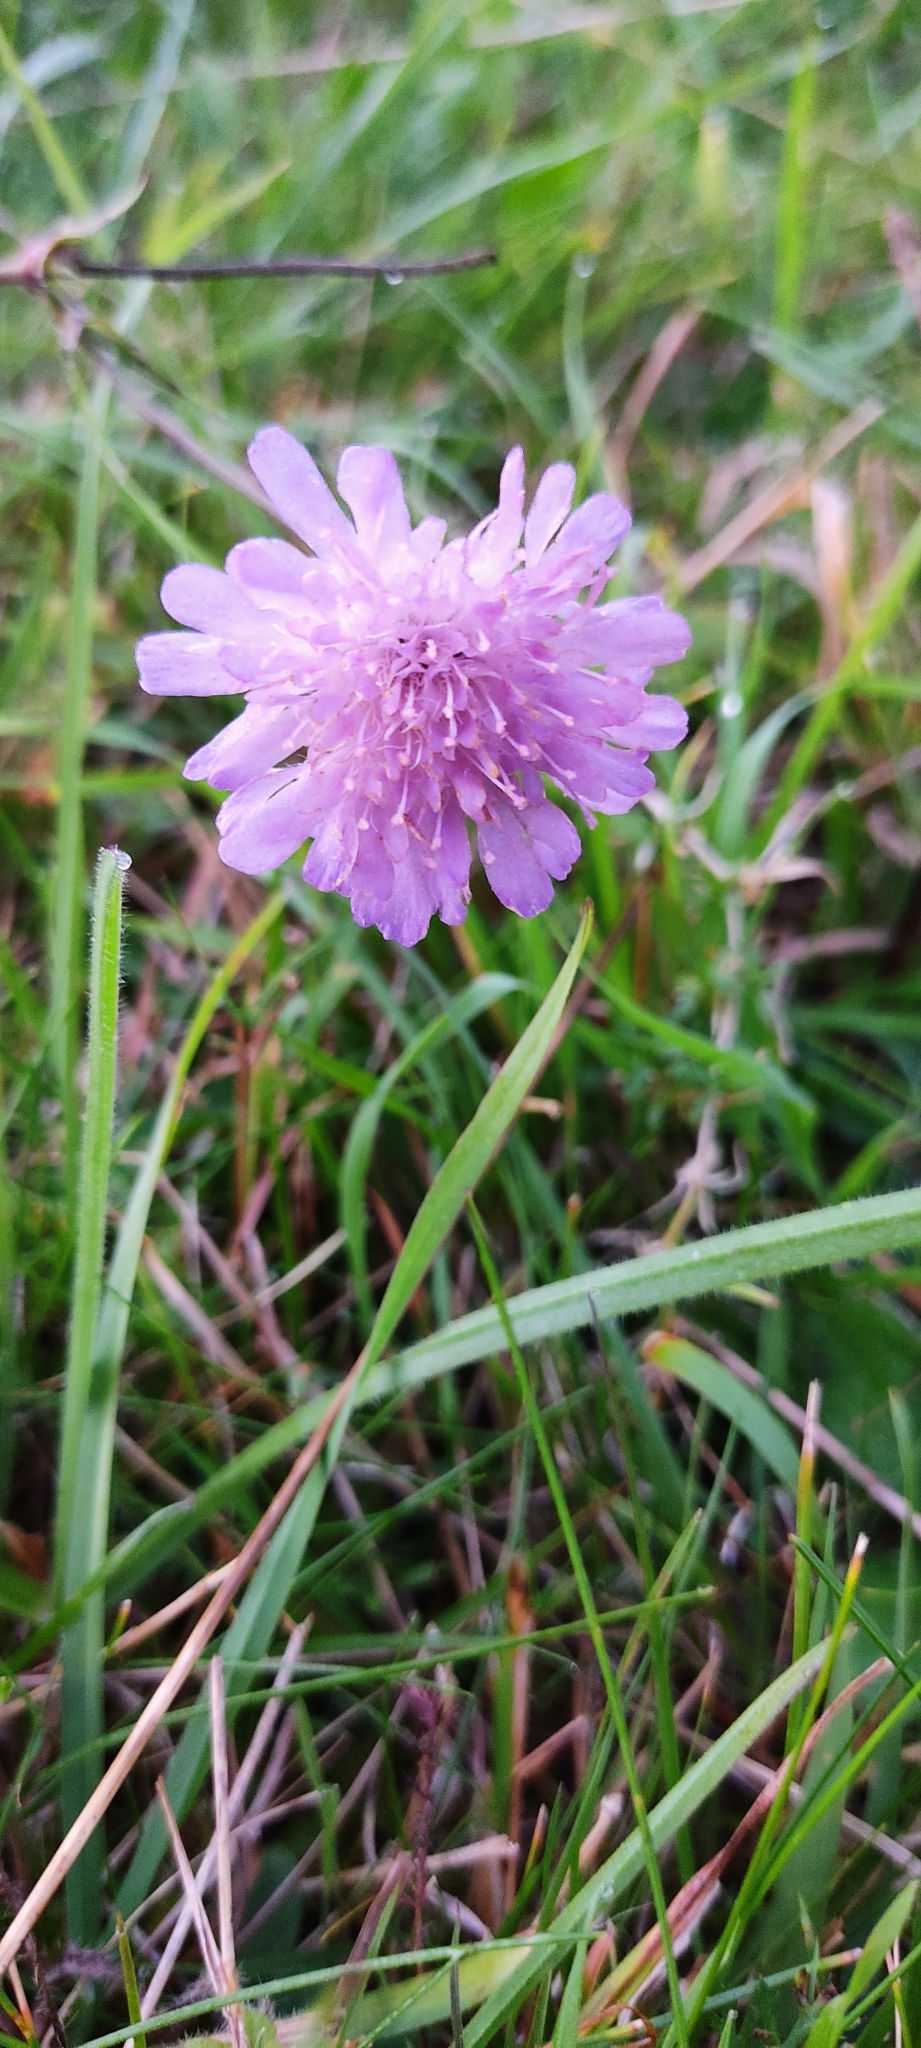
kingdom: Plantae
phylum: Tracheophyta
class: Magnoliopsida
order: Dipsacales
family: Caprifoliaceae
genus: Knautia
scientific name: Knautia arvensis
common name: Field scabiosa
